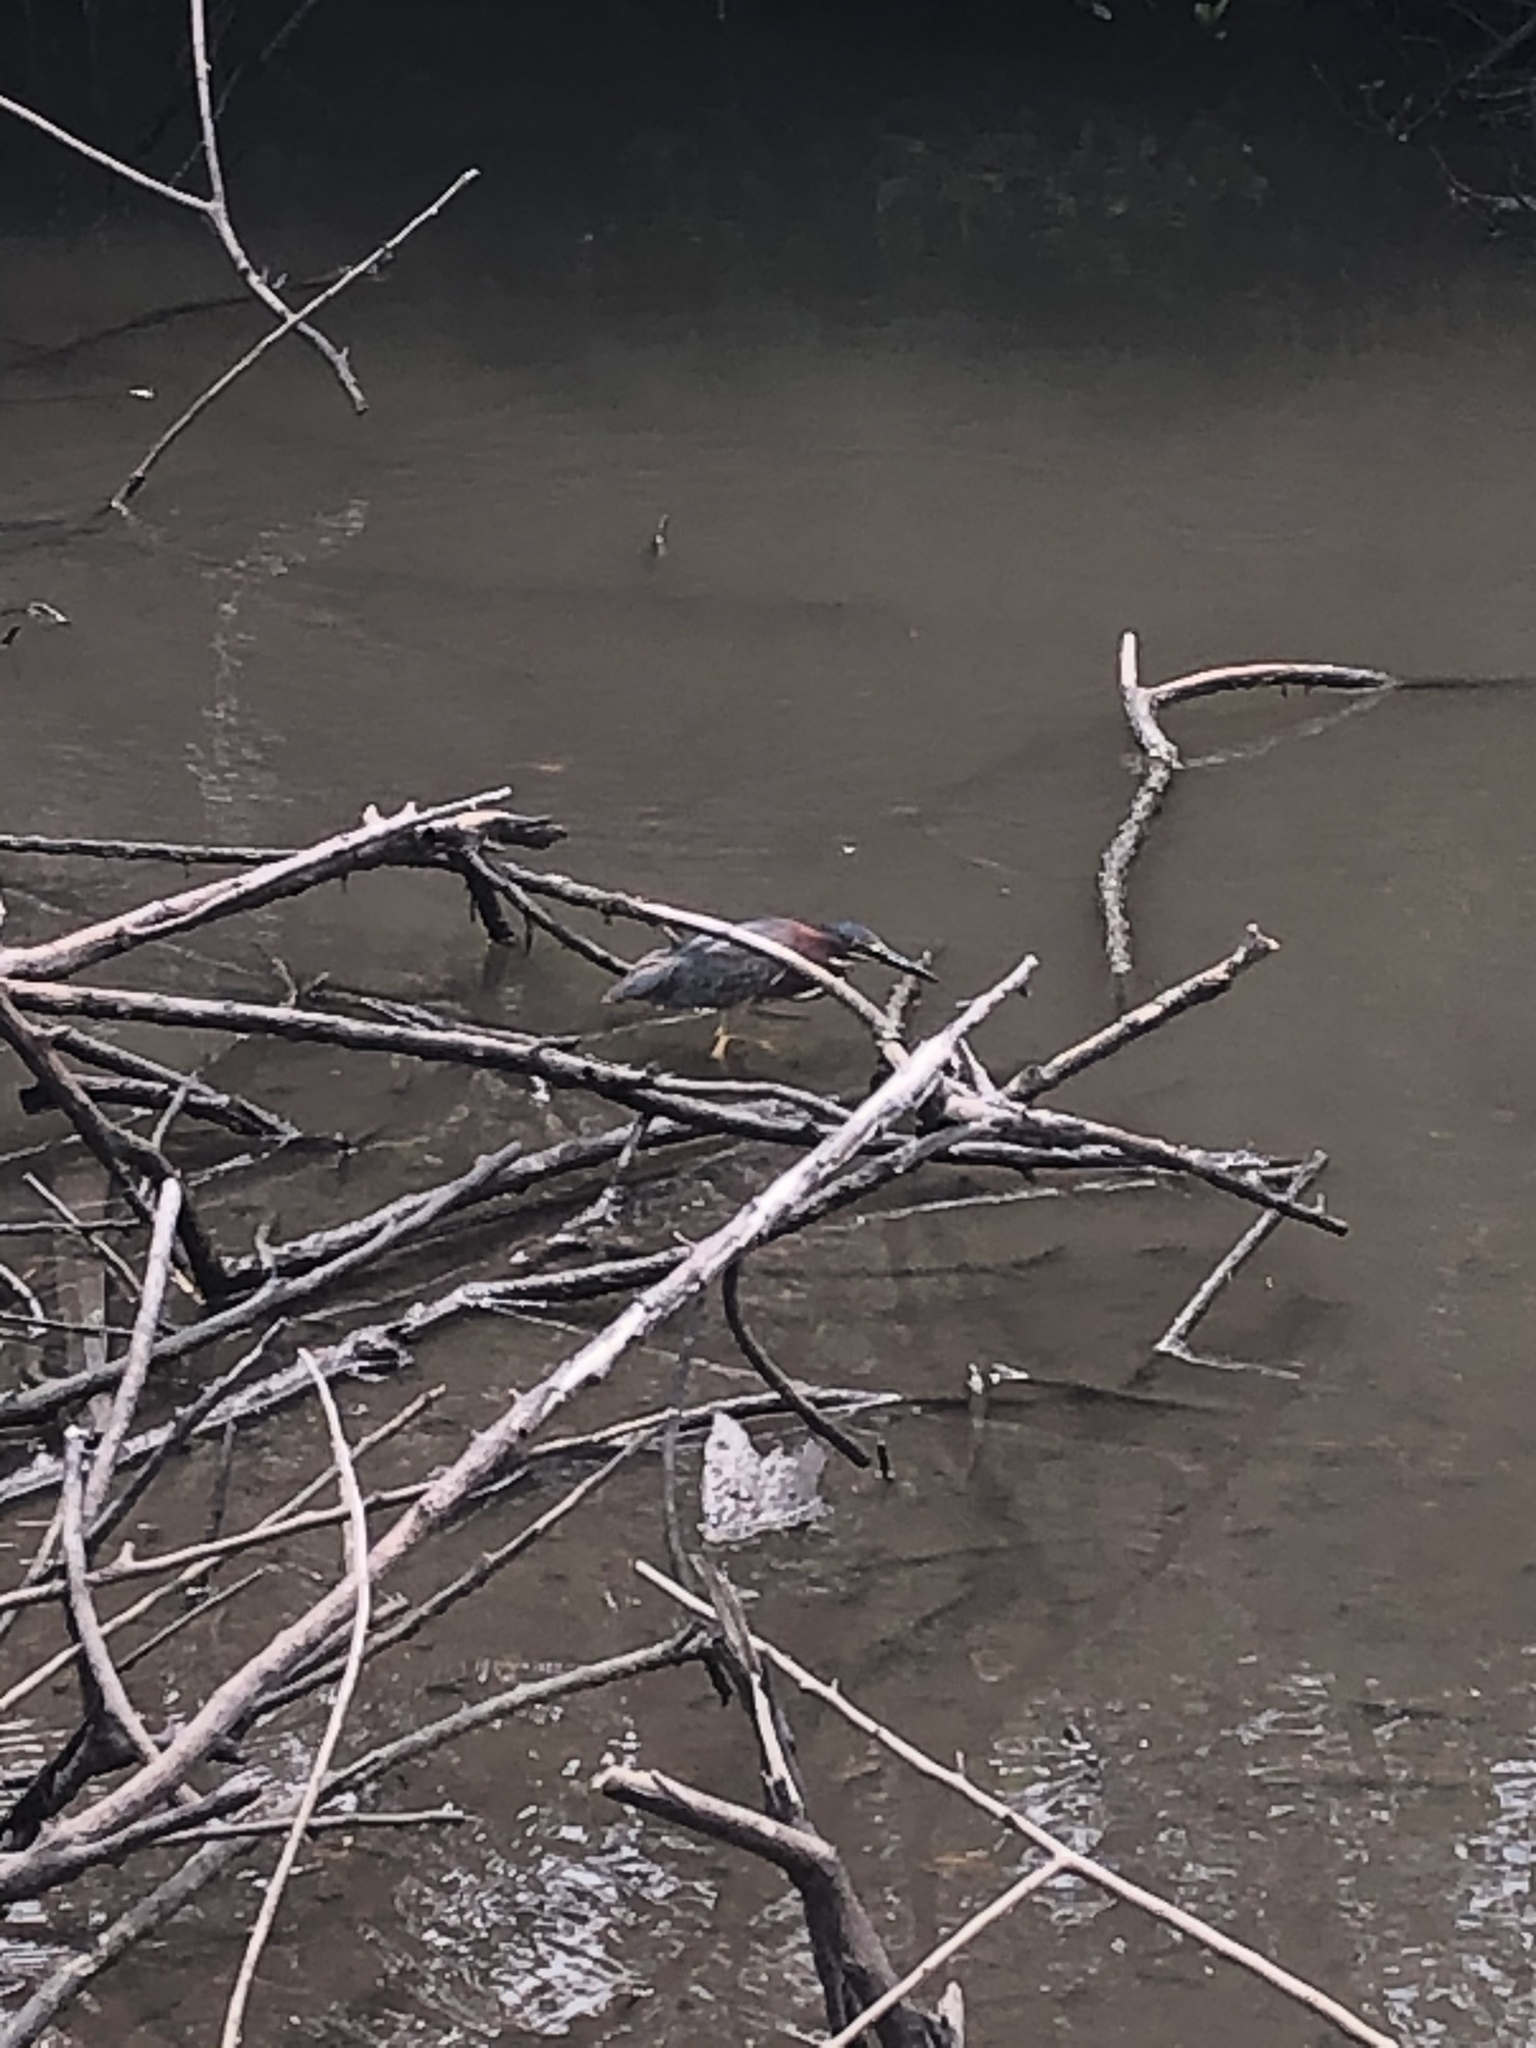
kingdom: Animalia
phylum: Chordata
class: Aves
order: Pelecaniformes
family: Ardeidae
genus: Butorides
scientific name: Butorides virescens
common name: Green heron
